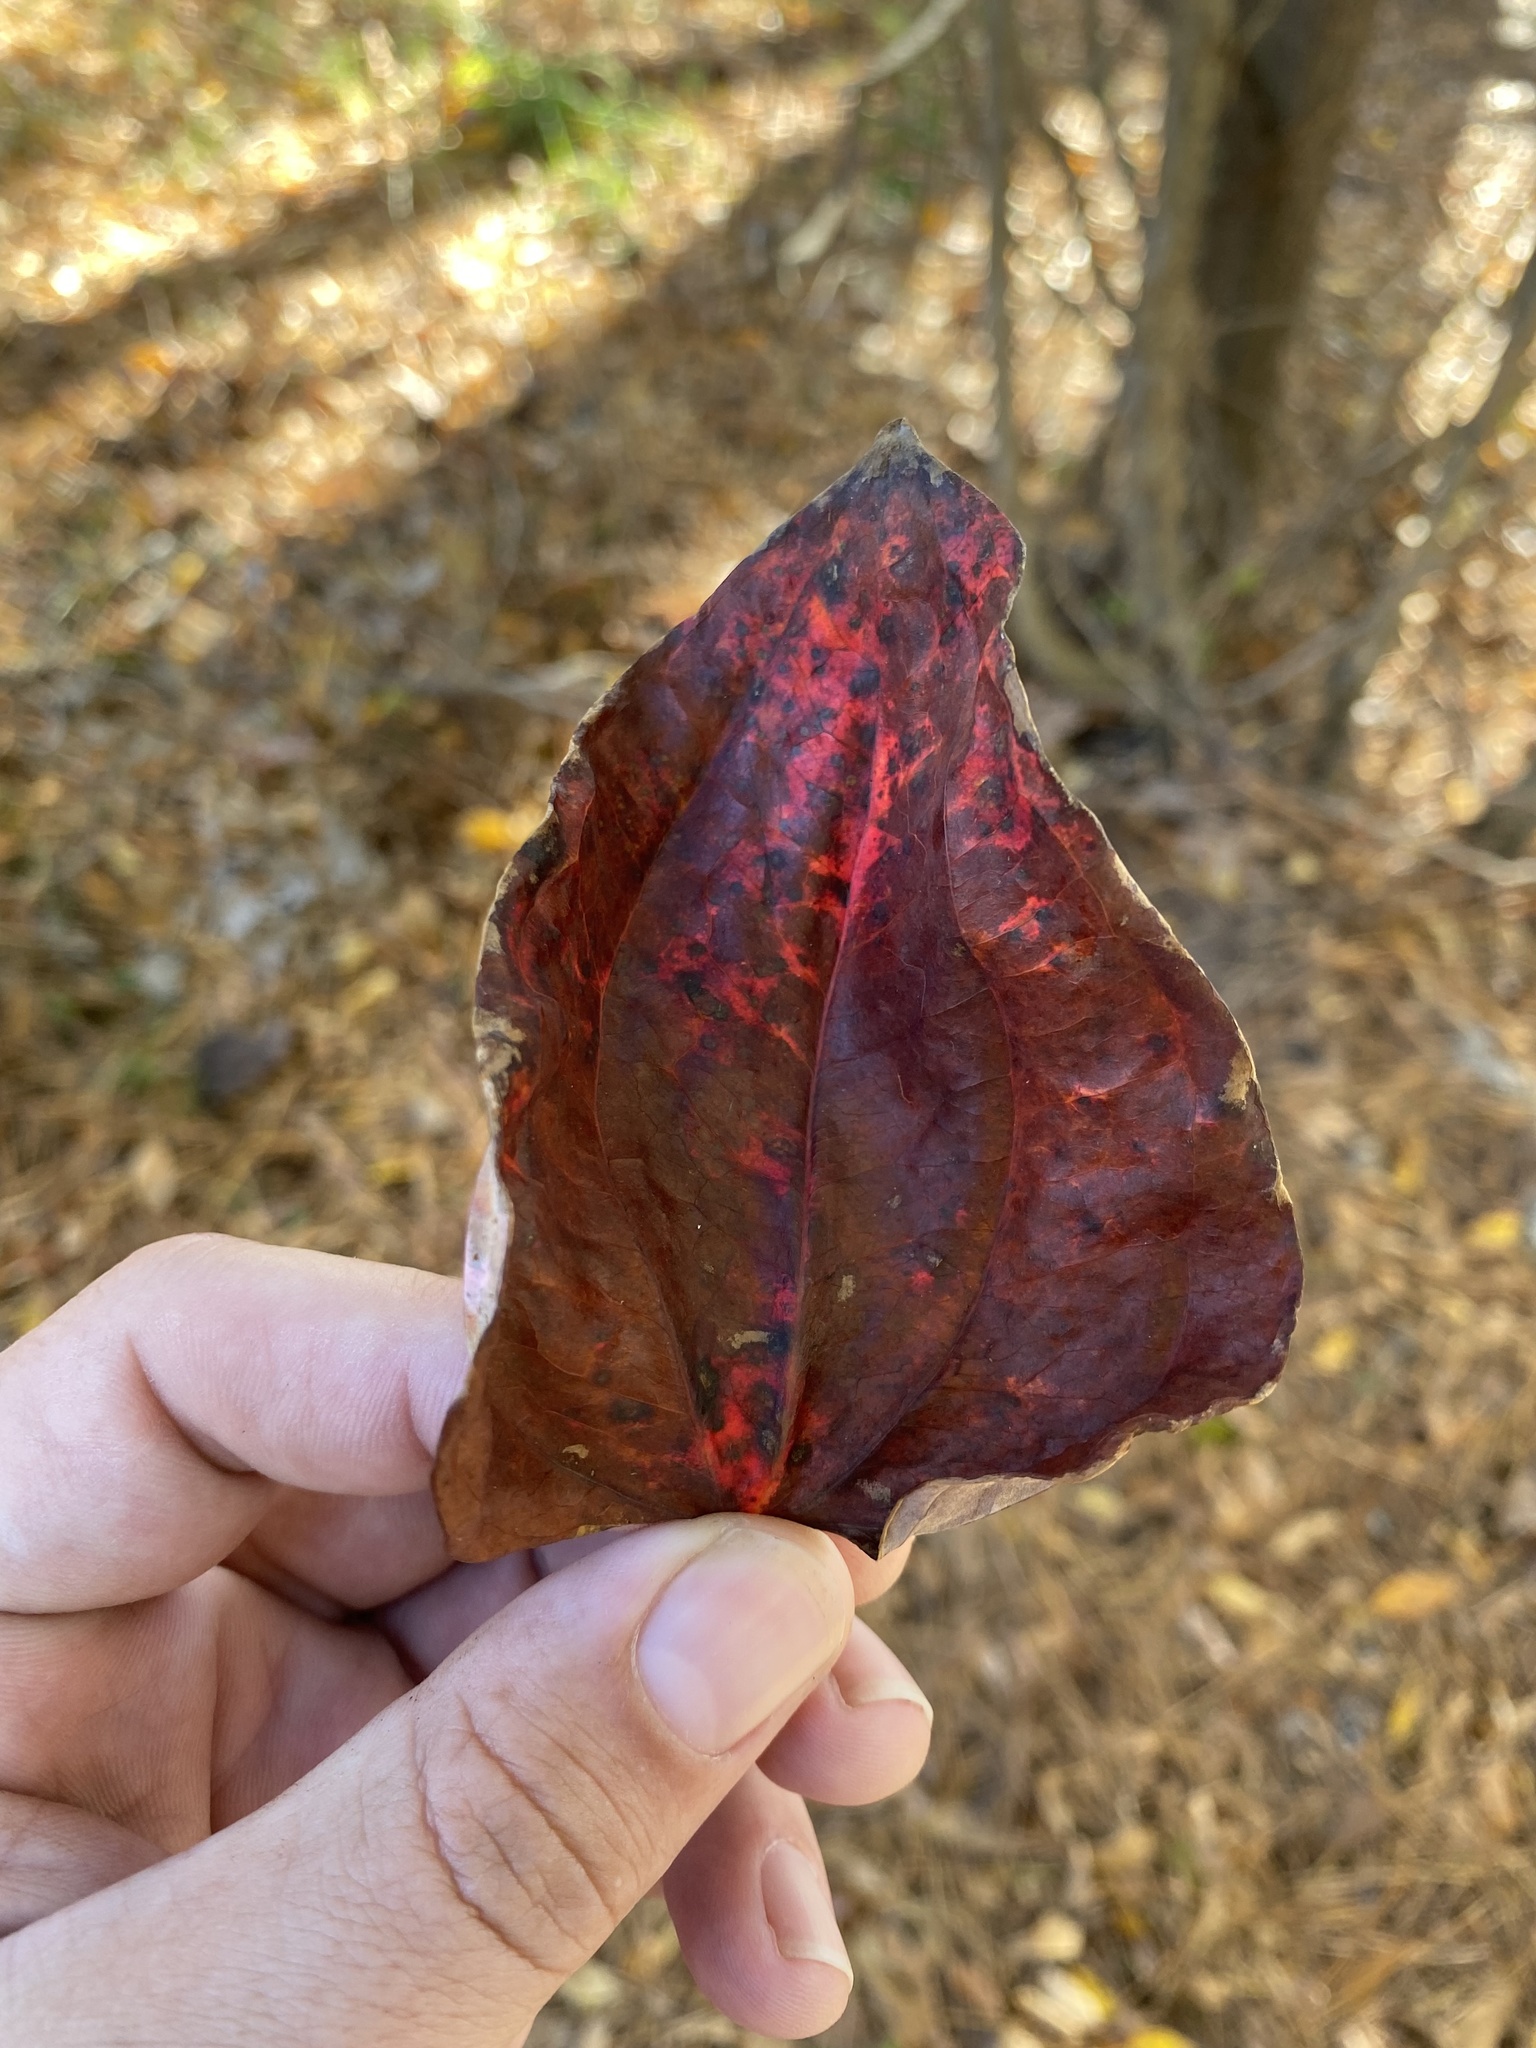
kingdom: Plantae
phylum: Tracheophyta
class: Liliopsida
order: Liliales
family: Smilacaceae
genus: Smilax
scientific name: Smilax glauca
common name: Cat greenbrier
